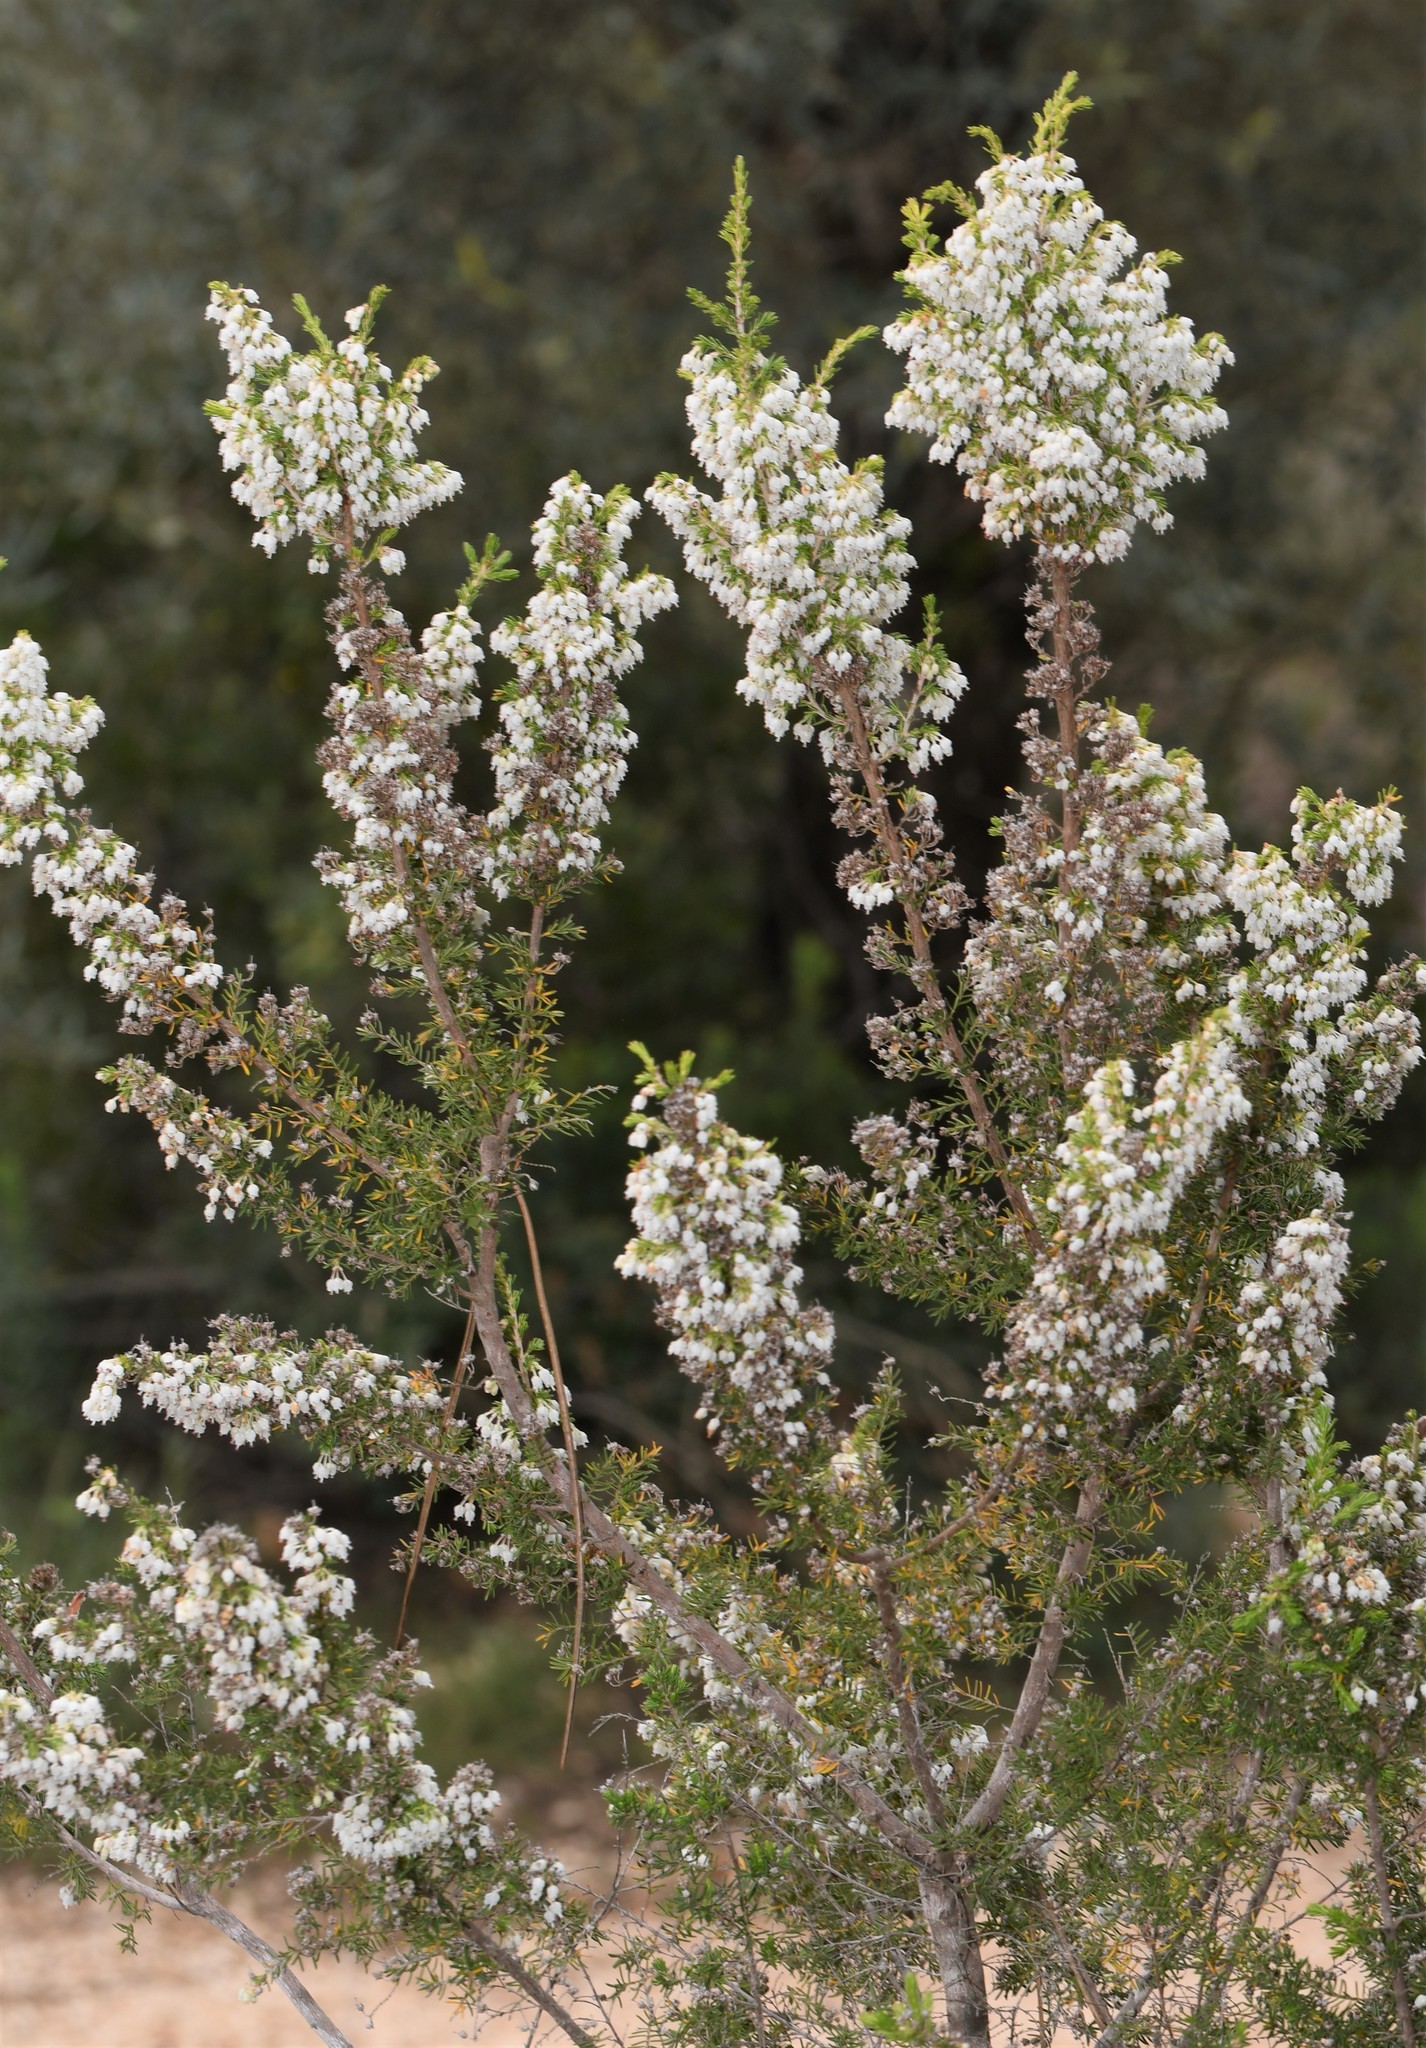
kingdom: Plantae
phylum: Tracheophyta
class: Magnoliopsida
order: Ericales
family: Ericaceae
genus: Erica
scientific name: Erica arborea
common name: Tree heath
